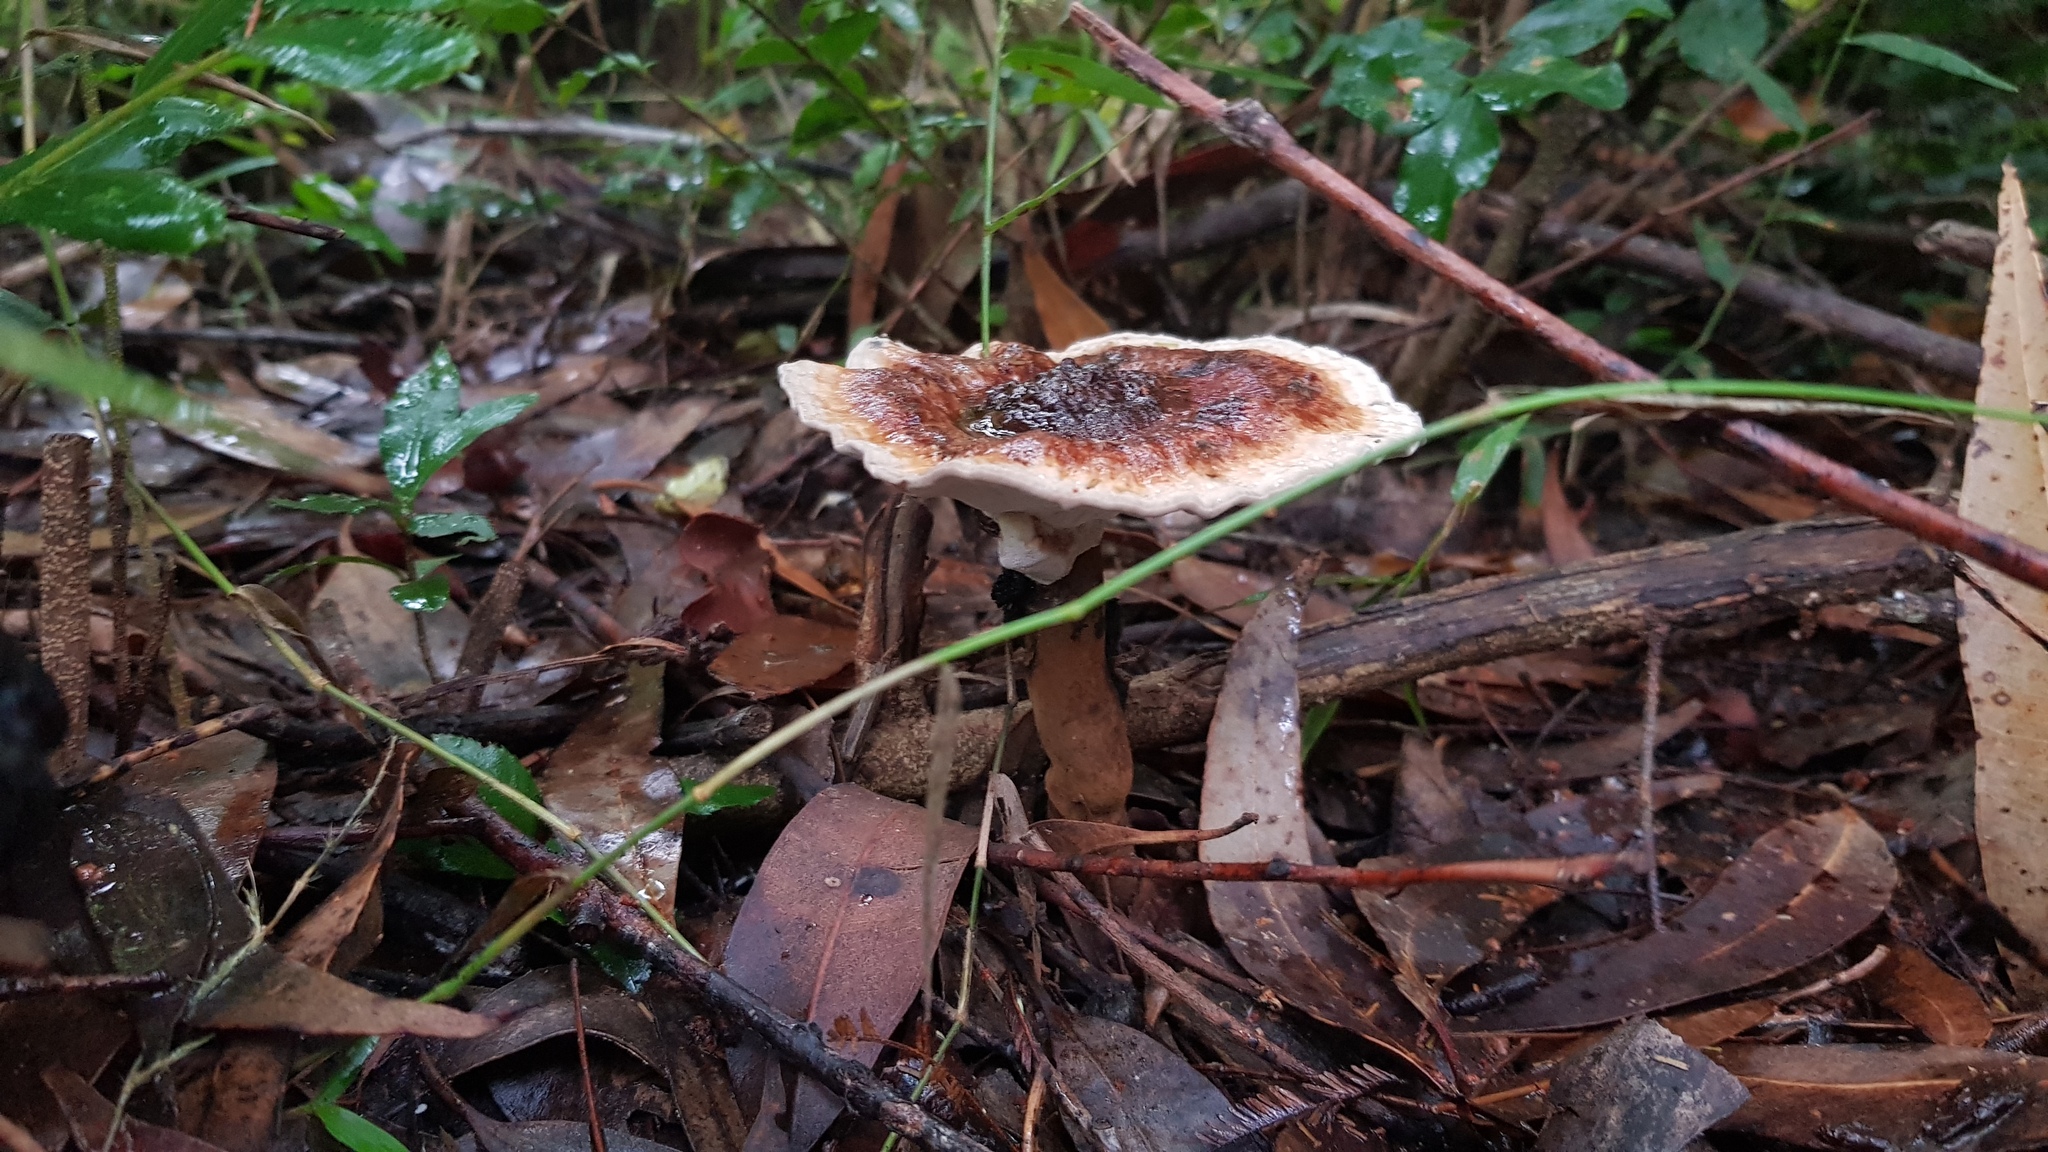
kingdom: Fungi
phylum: Basidiomycota
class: Agaricomycetes
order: Polyporales
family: Ganodermataceae
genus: Sanguinoderma
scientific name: Sanguinoderma rude
